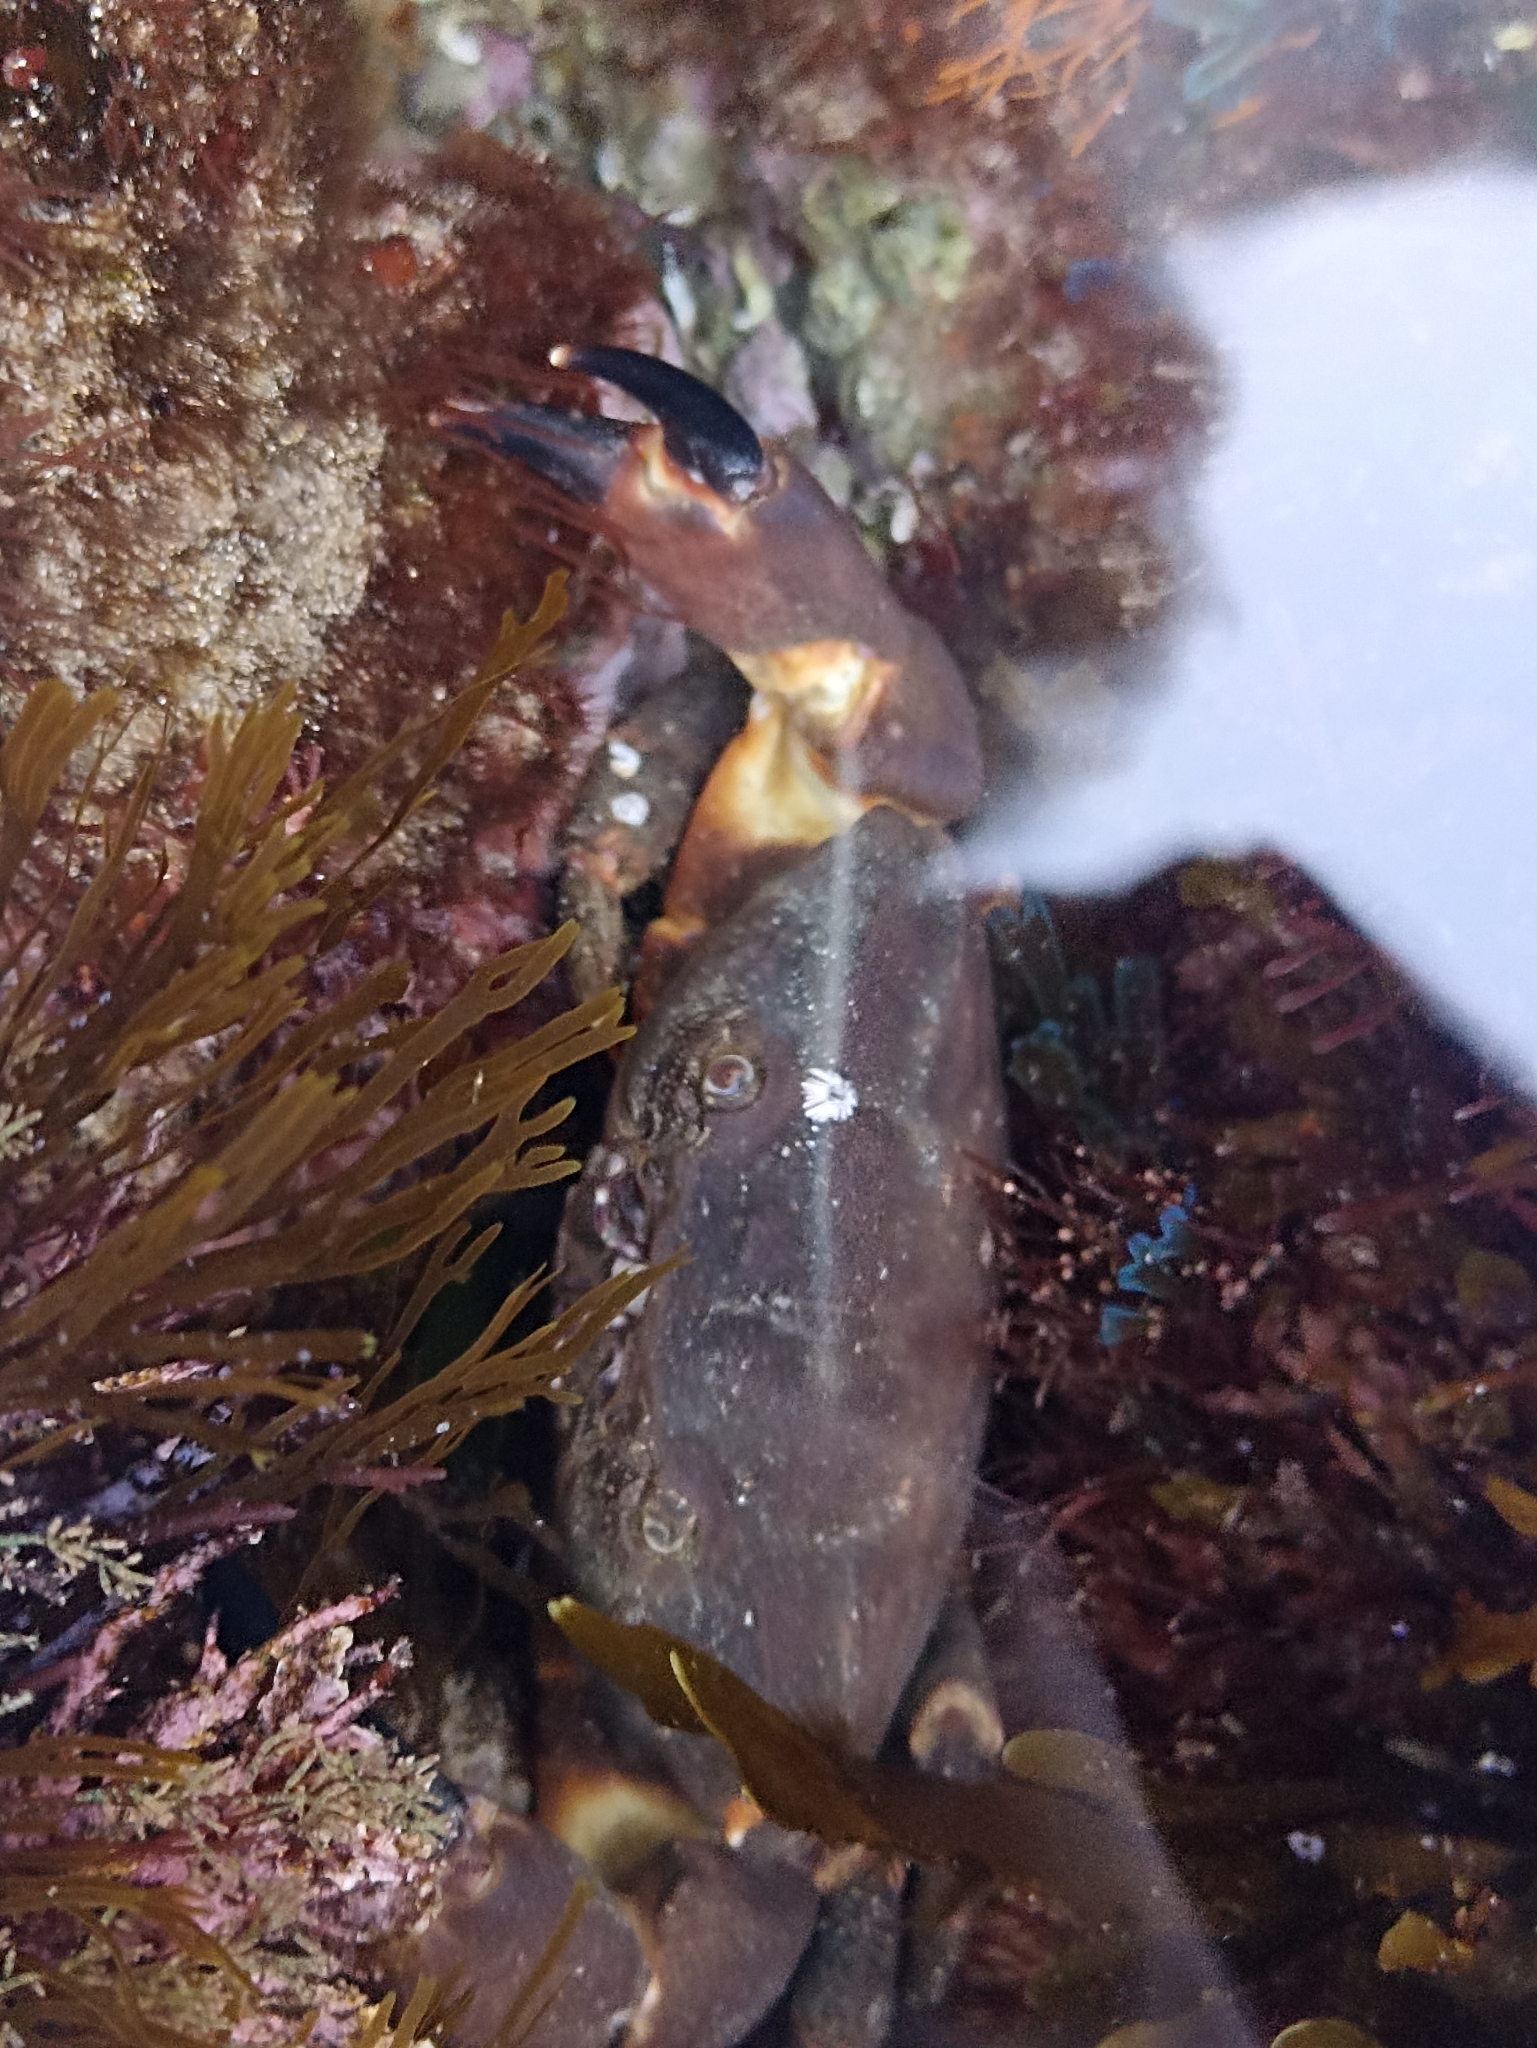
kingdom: Animalia
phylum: Arthropoda
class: Malacostraca
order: Decapoda
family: Oziidae
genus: Ozius
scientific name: Ozius truncatus
